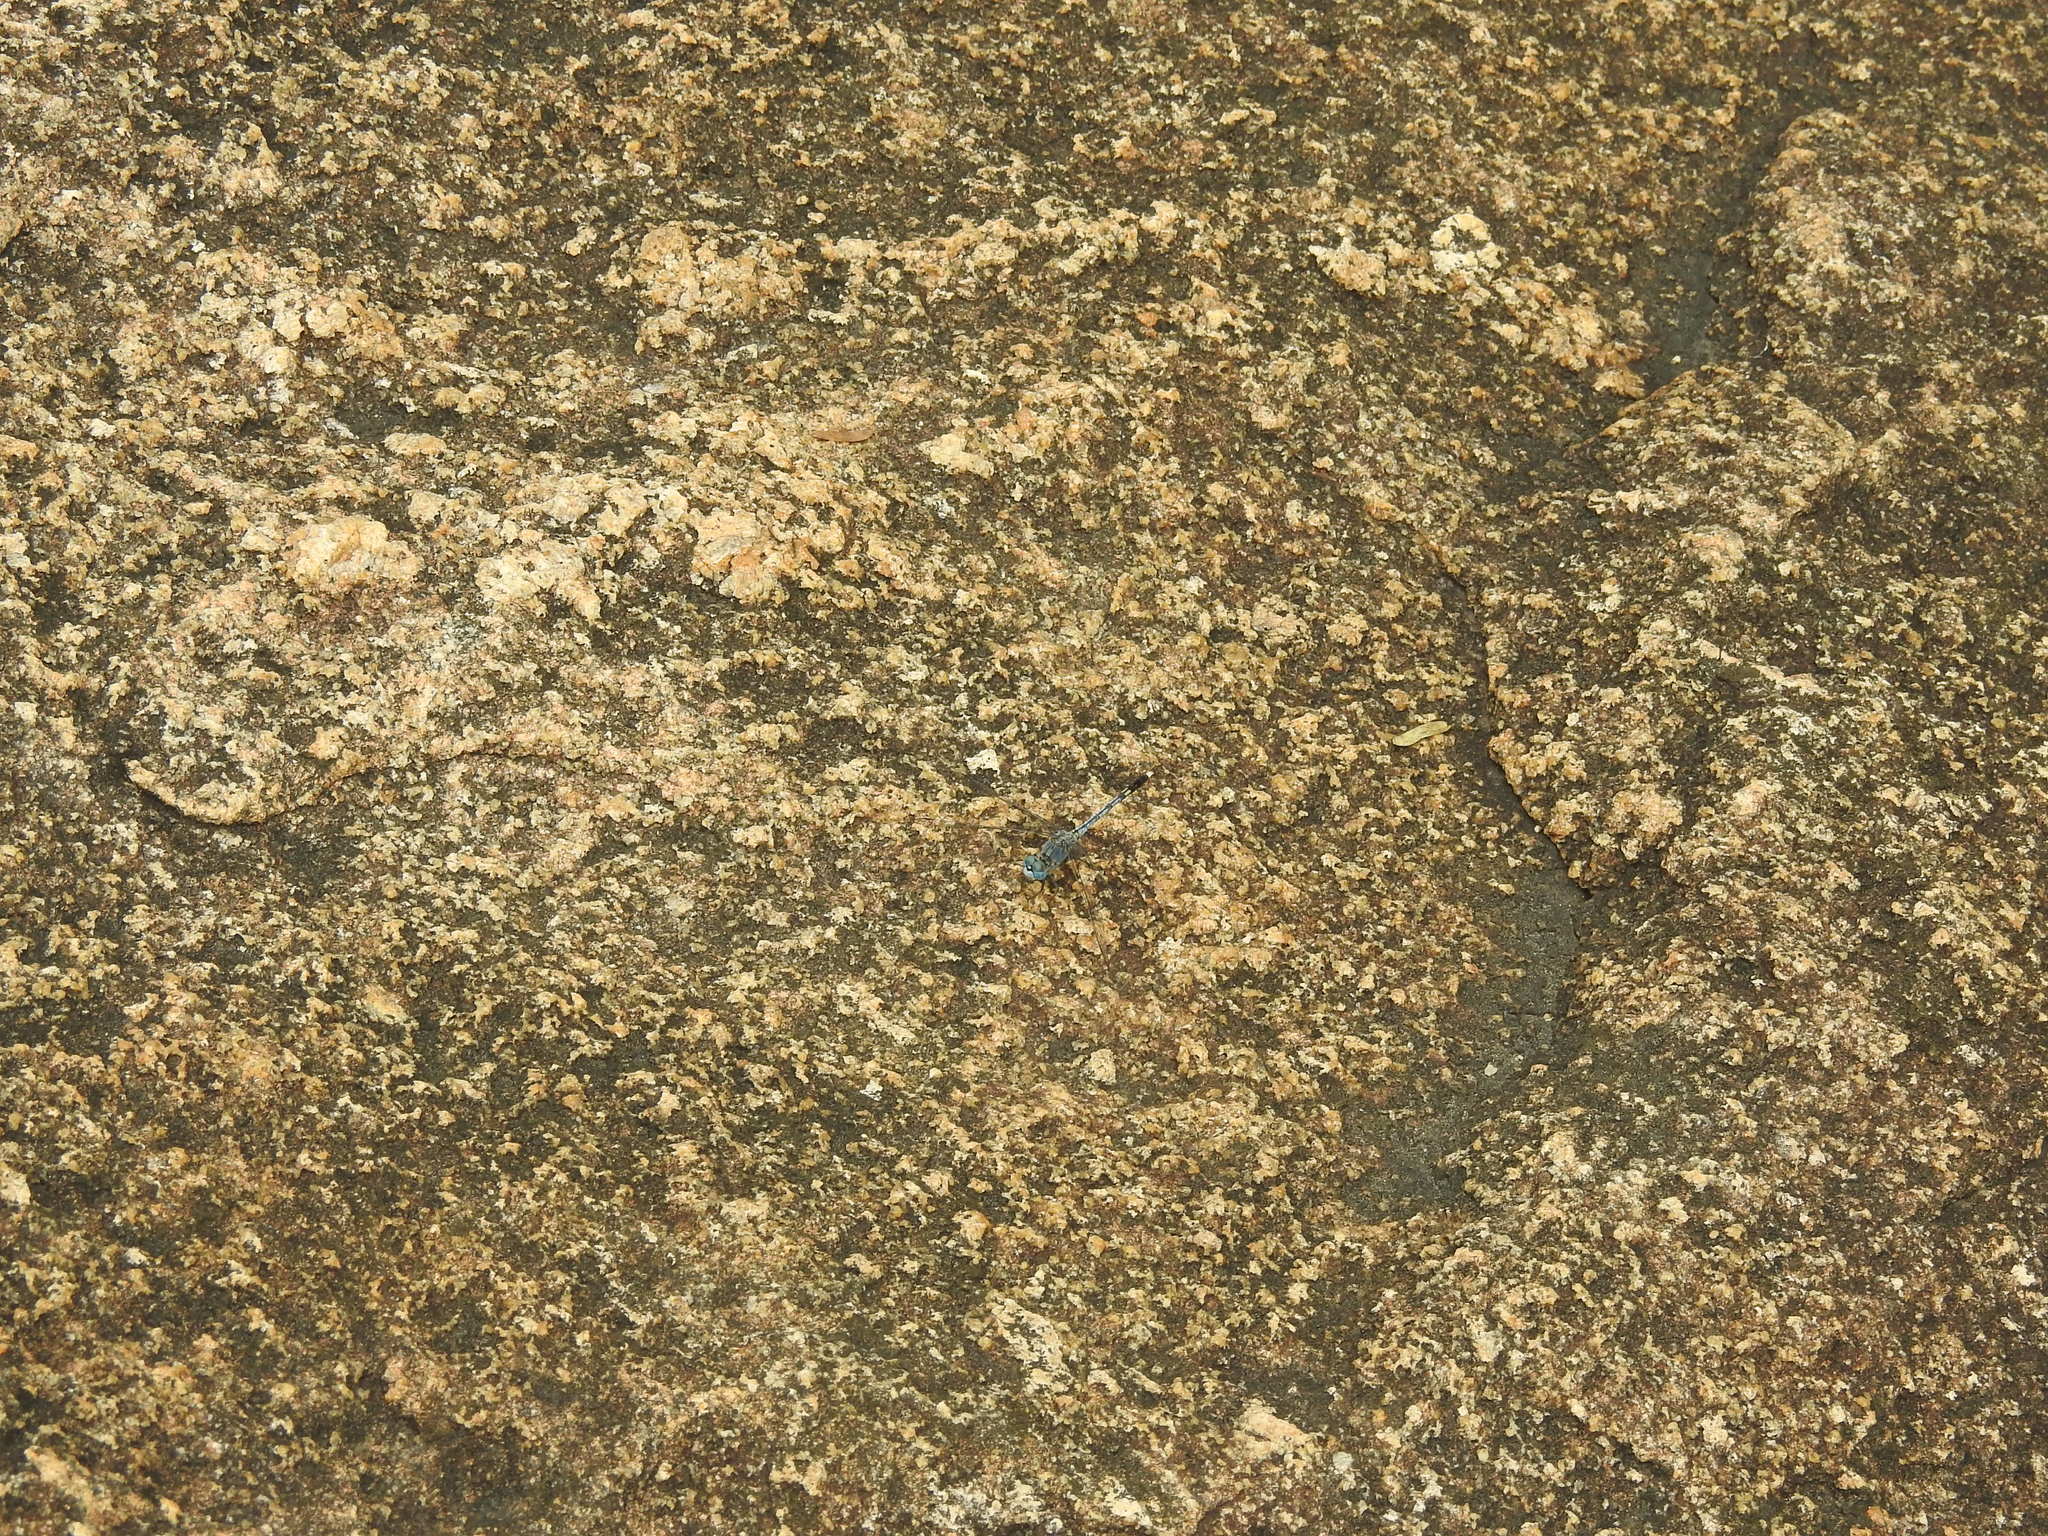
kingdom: Animalia
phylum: Arthropoda
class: Insecta
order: Odonata
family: Libellulidae
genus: Diplacodes
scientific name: Diplacodes trivialis
